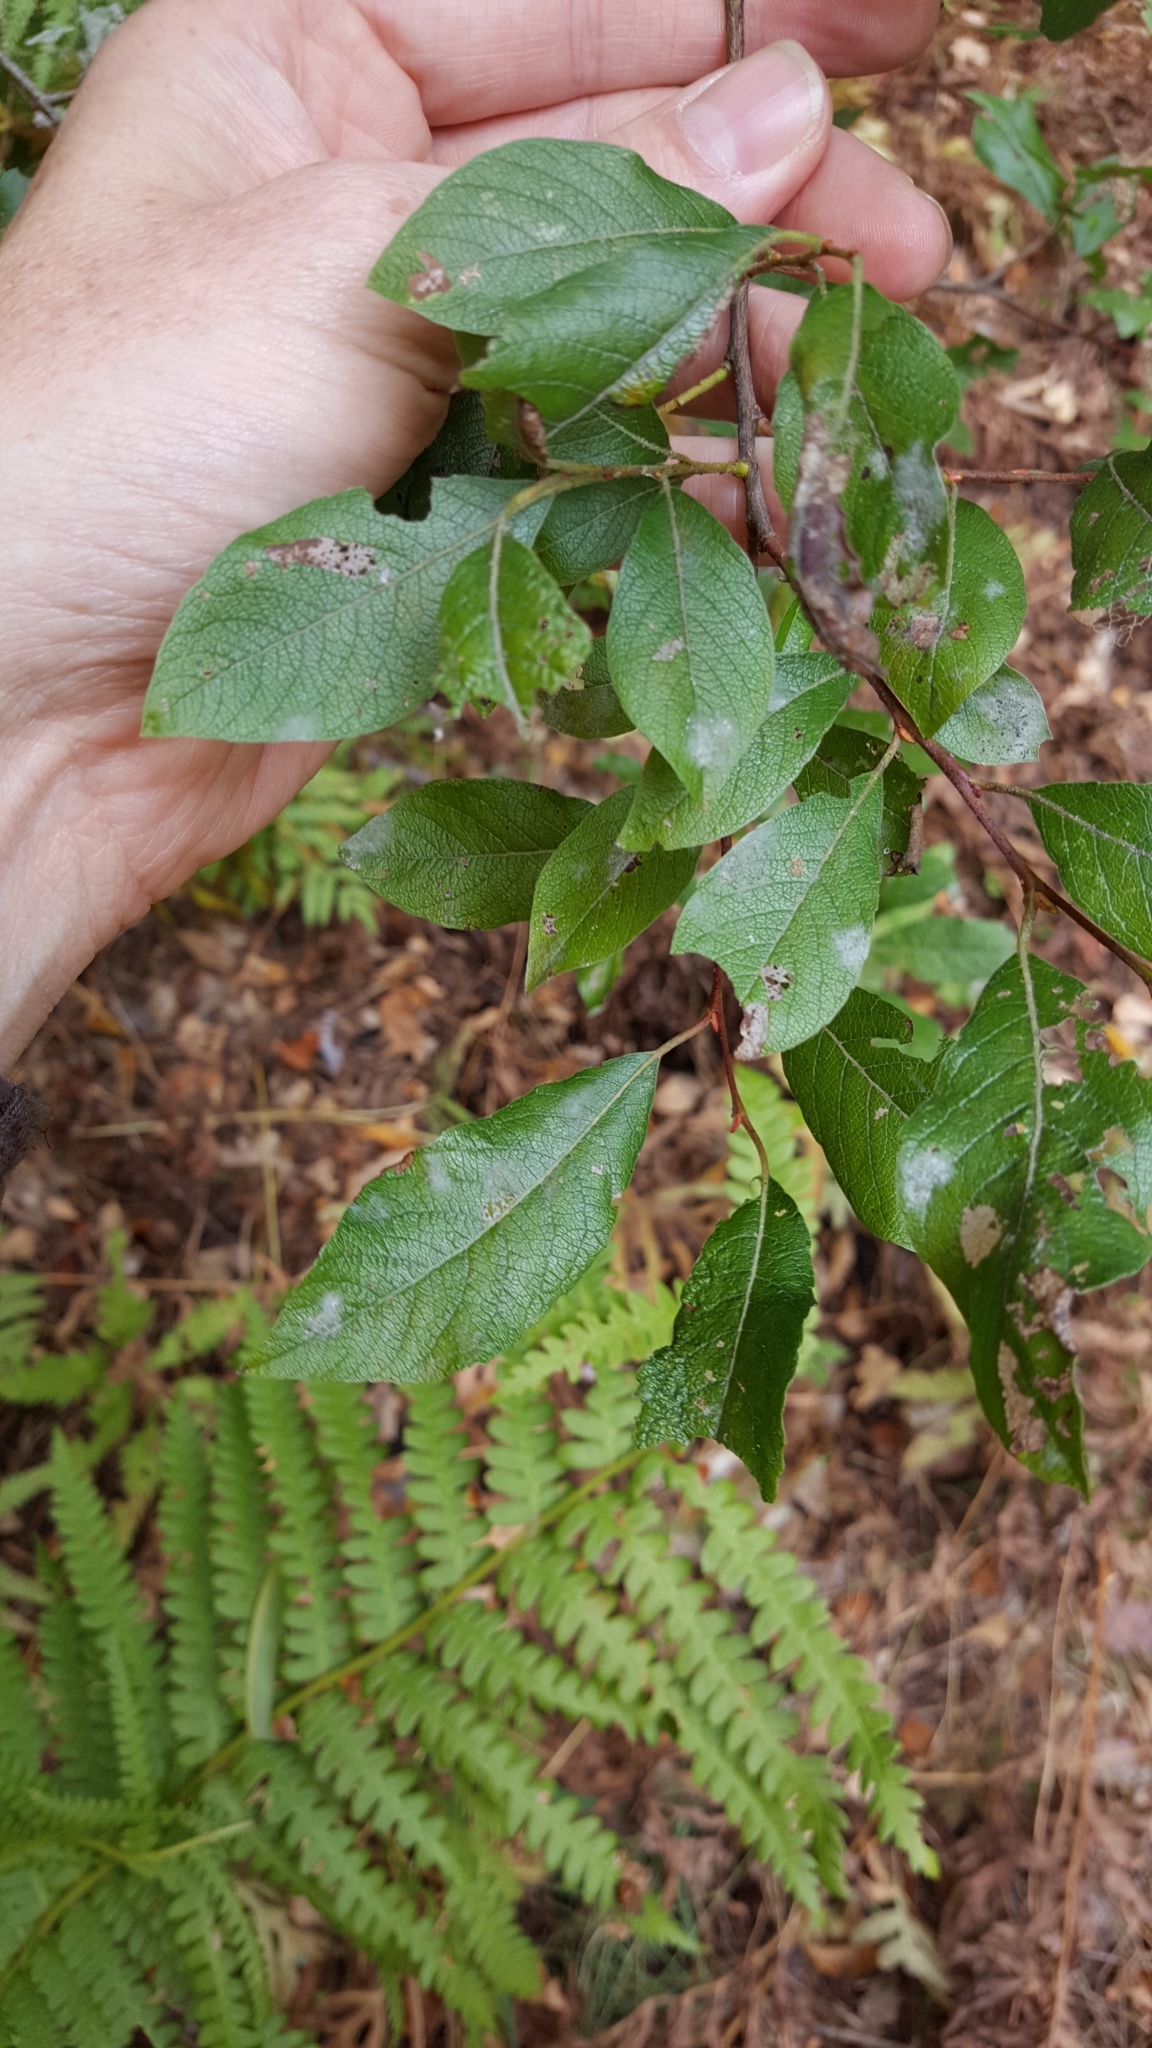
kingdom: Plantae
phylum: Tracheophyta
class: Magnoliopsida
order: Malpighiales
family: Salicaceae
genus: Salix
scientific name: Salix bebbiana
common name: Bebb's willow
